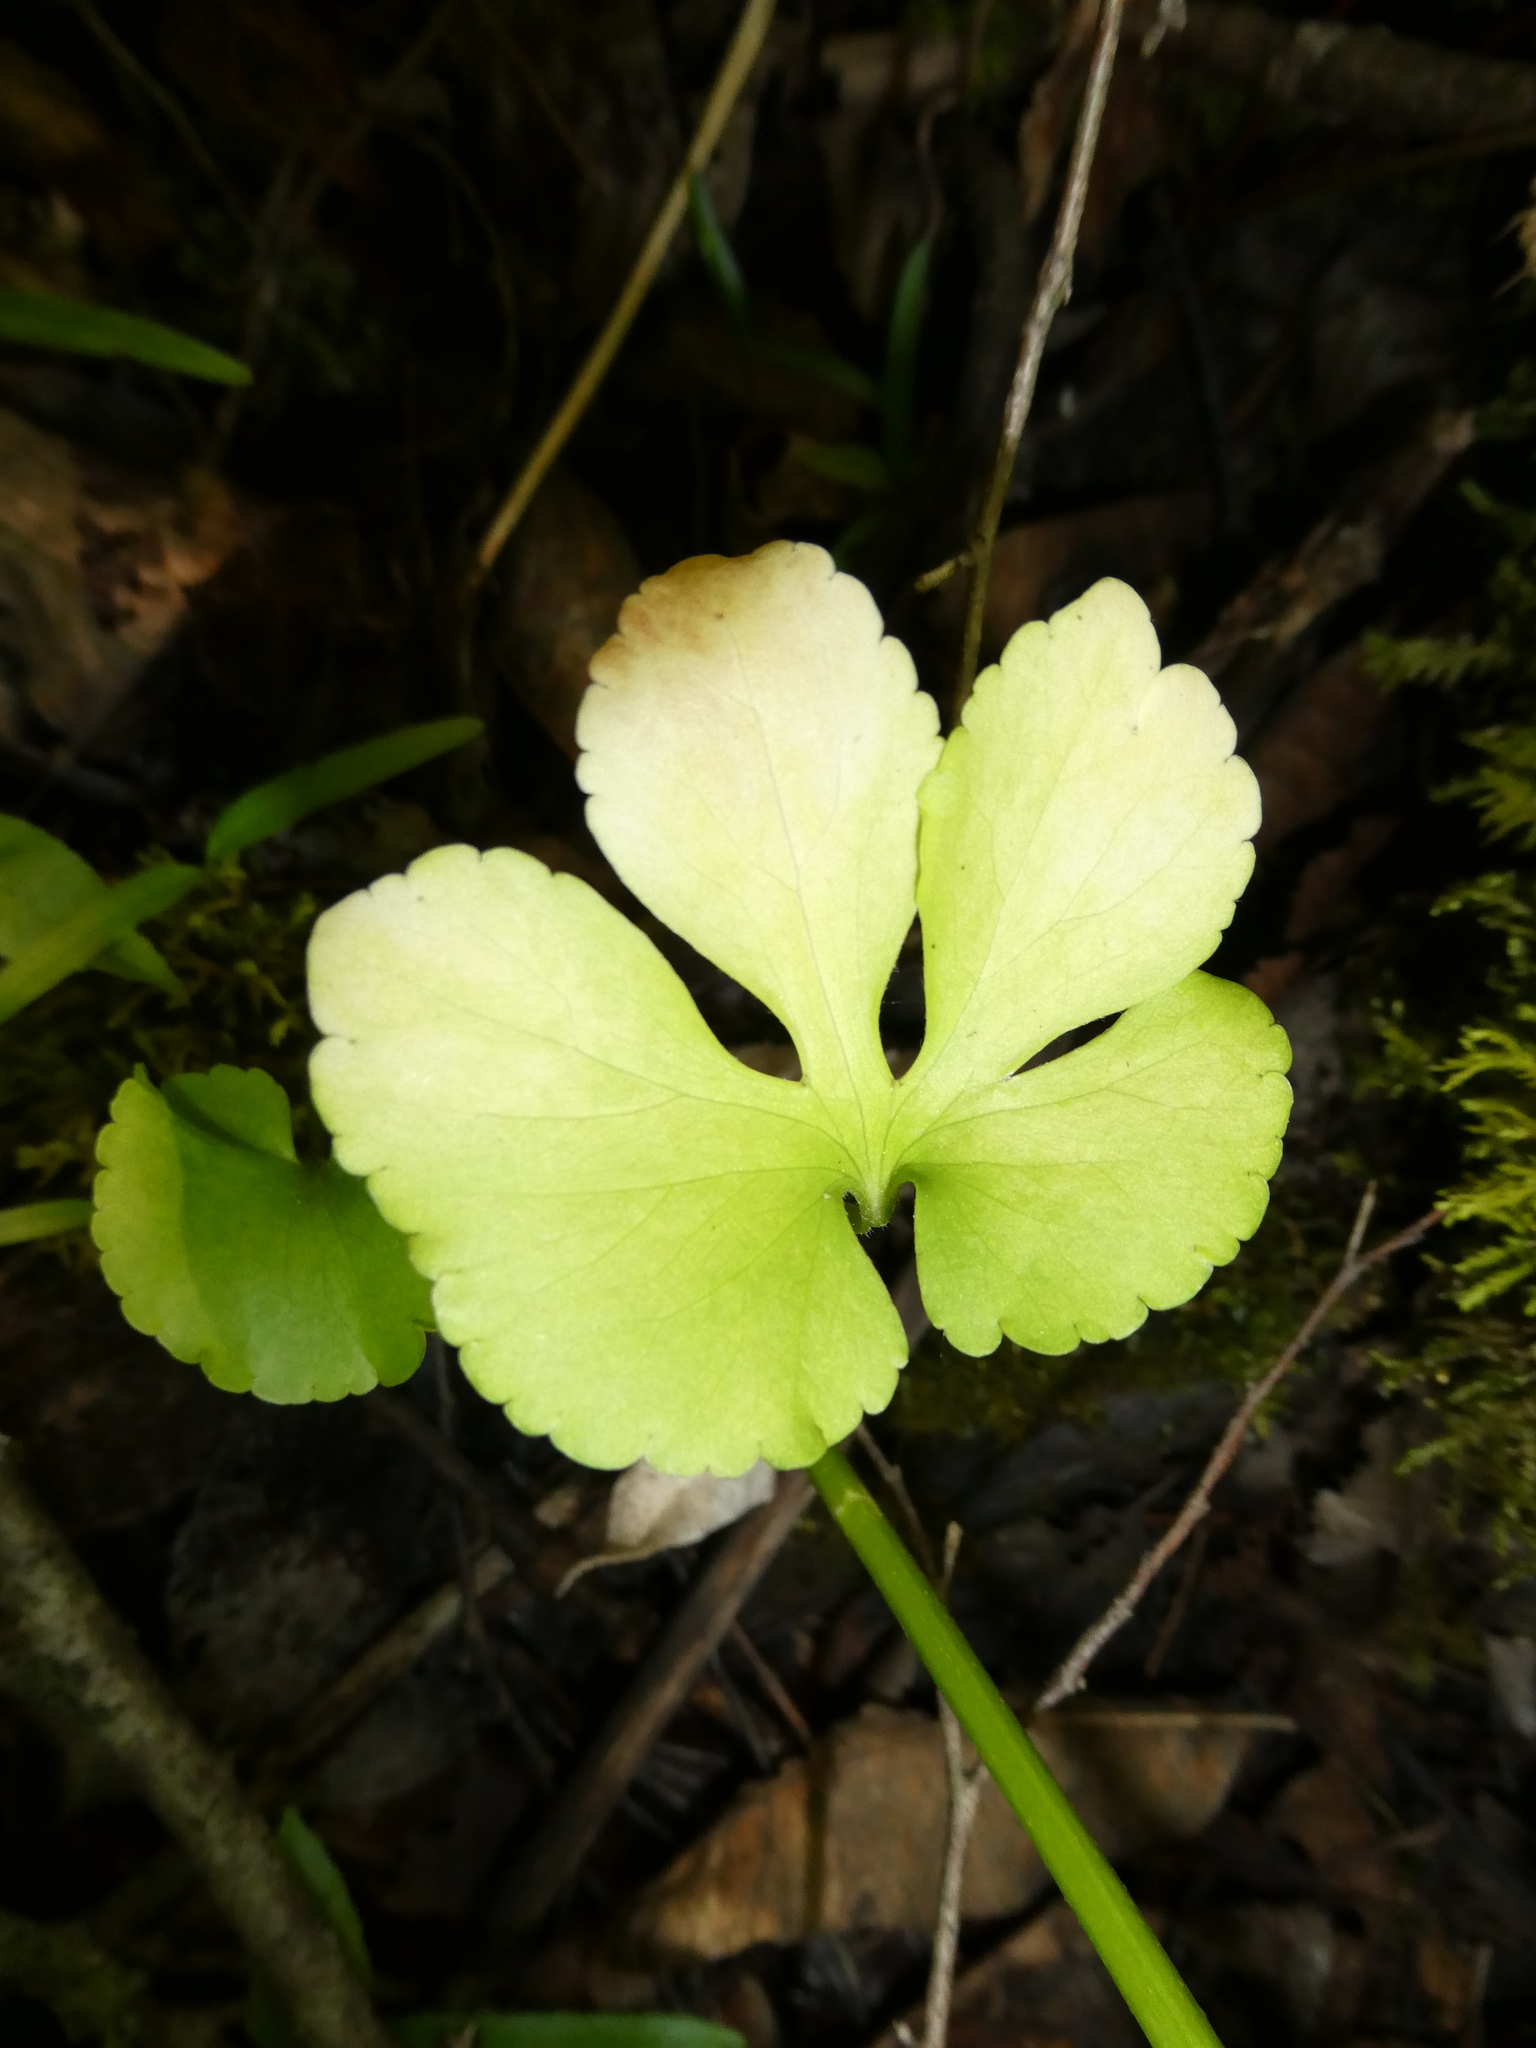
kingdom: Plantae
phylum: Tracheophyta
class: Magnoliopsida
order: Ranunculales
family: Ranunculaceae
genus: Ranunculus
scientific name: Ranunculus abortivus
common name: Early wood buttercup
